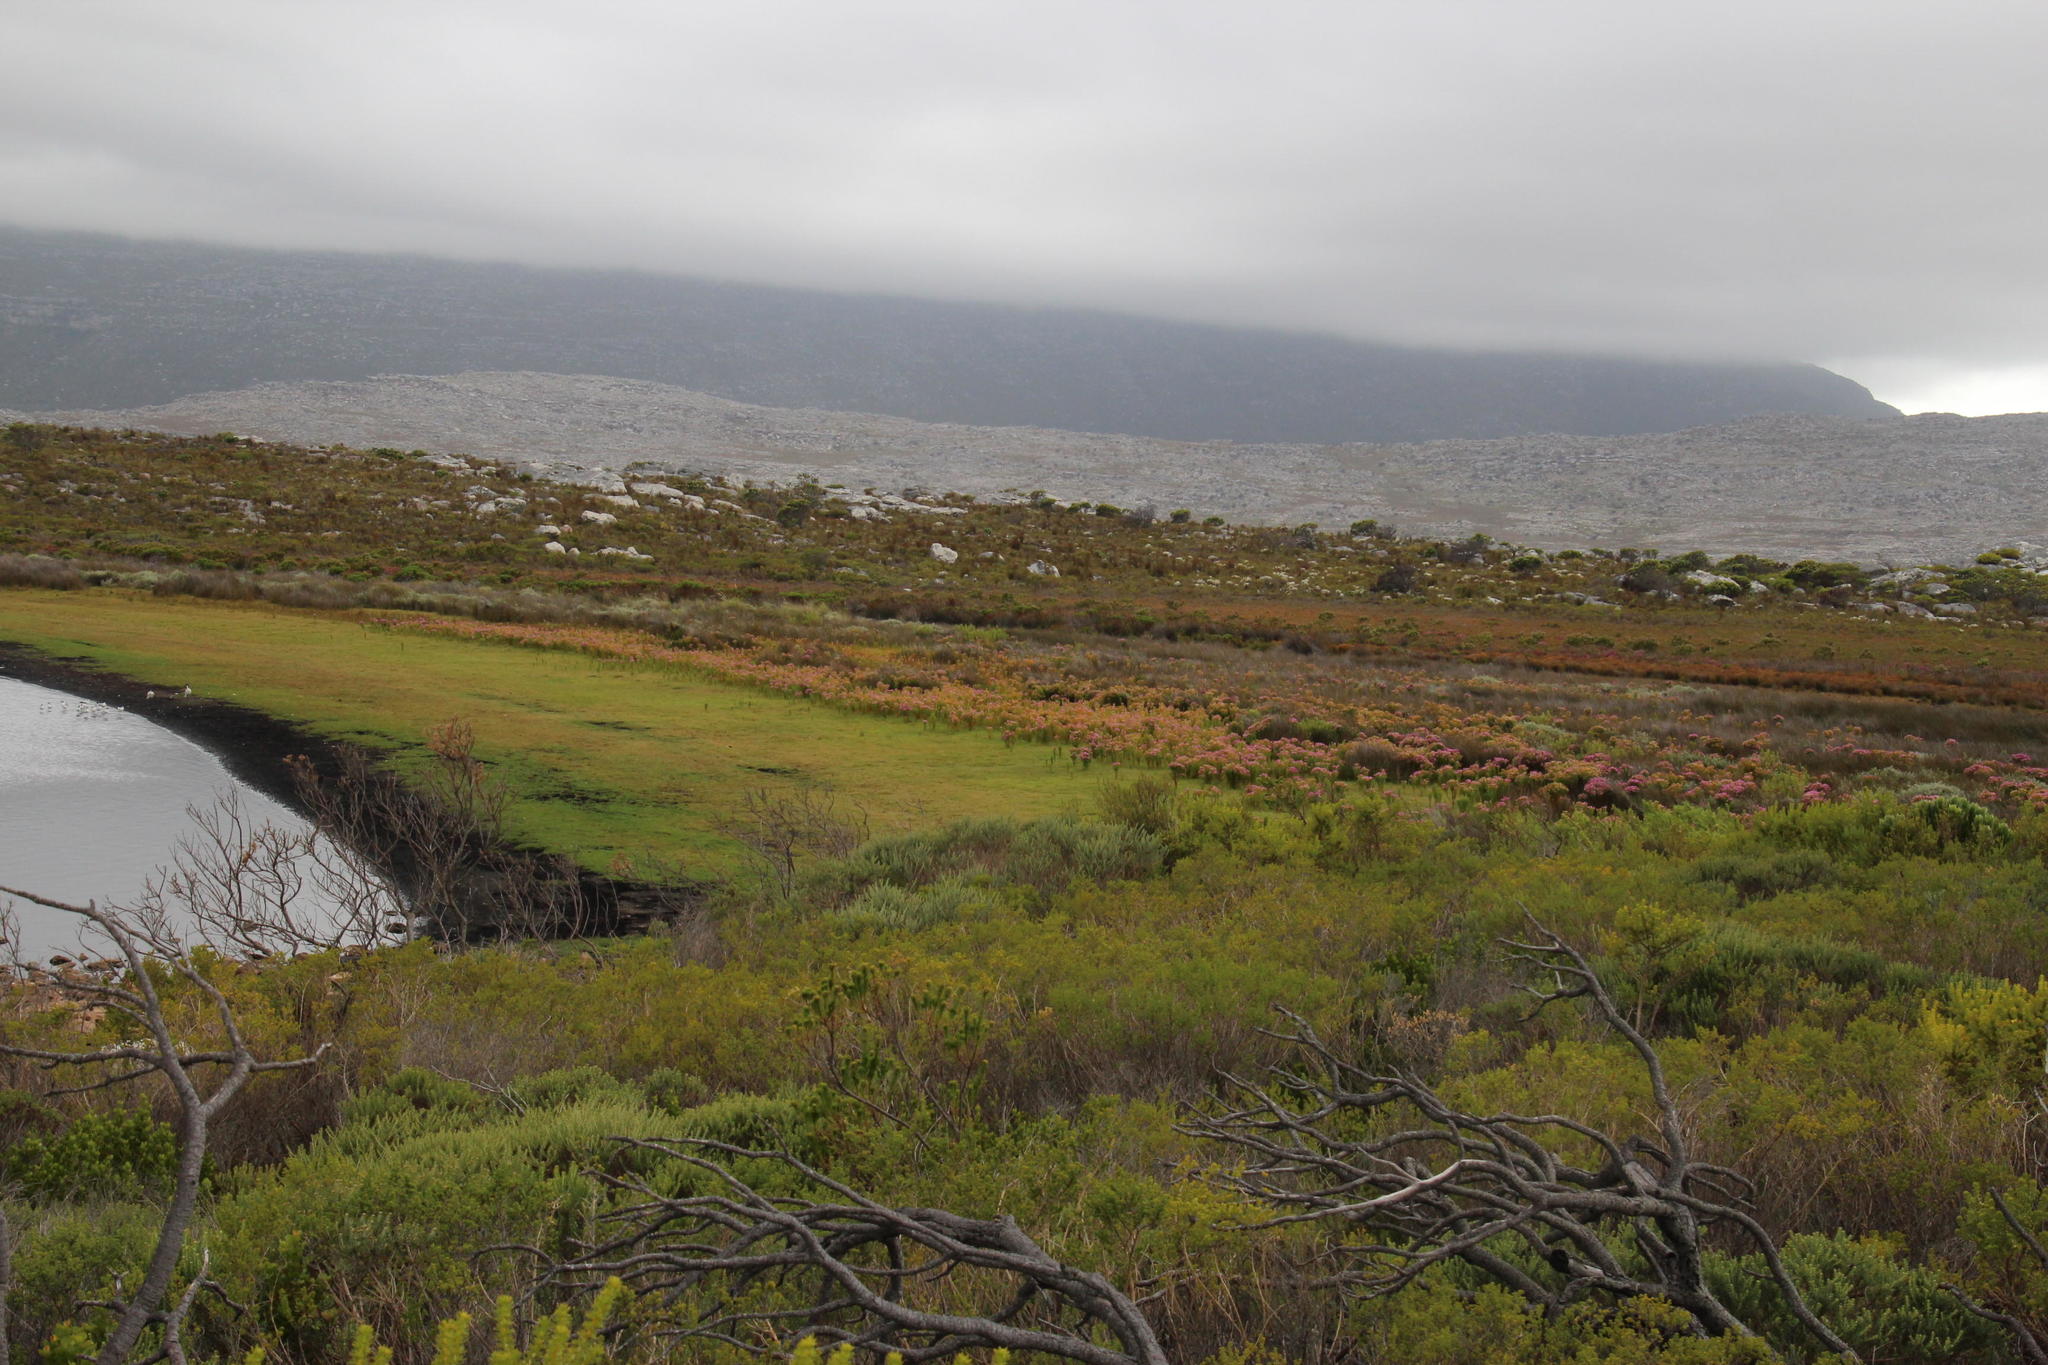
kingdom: Plantae
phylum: Tracheophyta
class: Magnoliopsida
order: Gentianales
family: Gentianaceae
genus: Orphium
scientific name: Orphium frutescens
